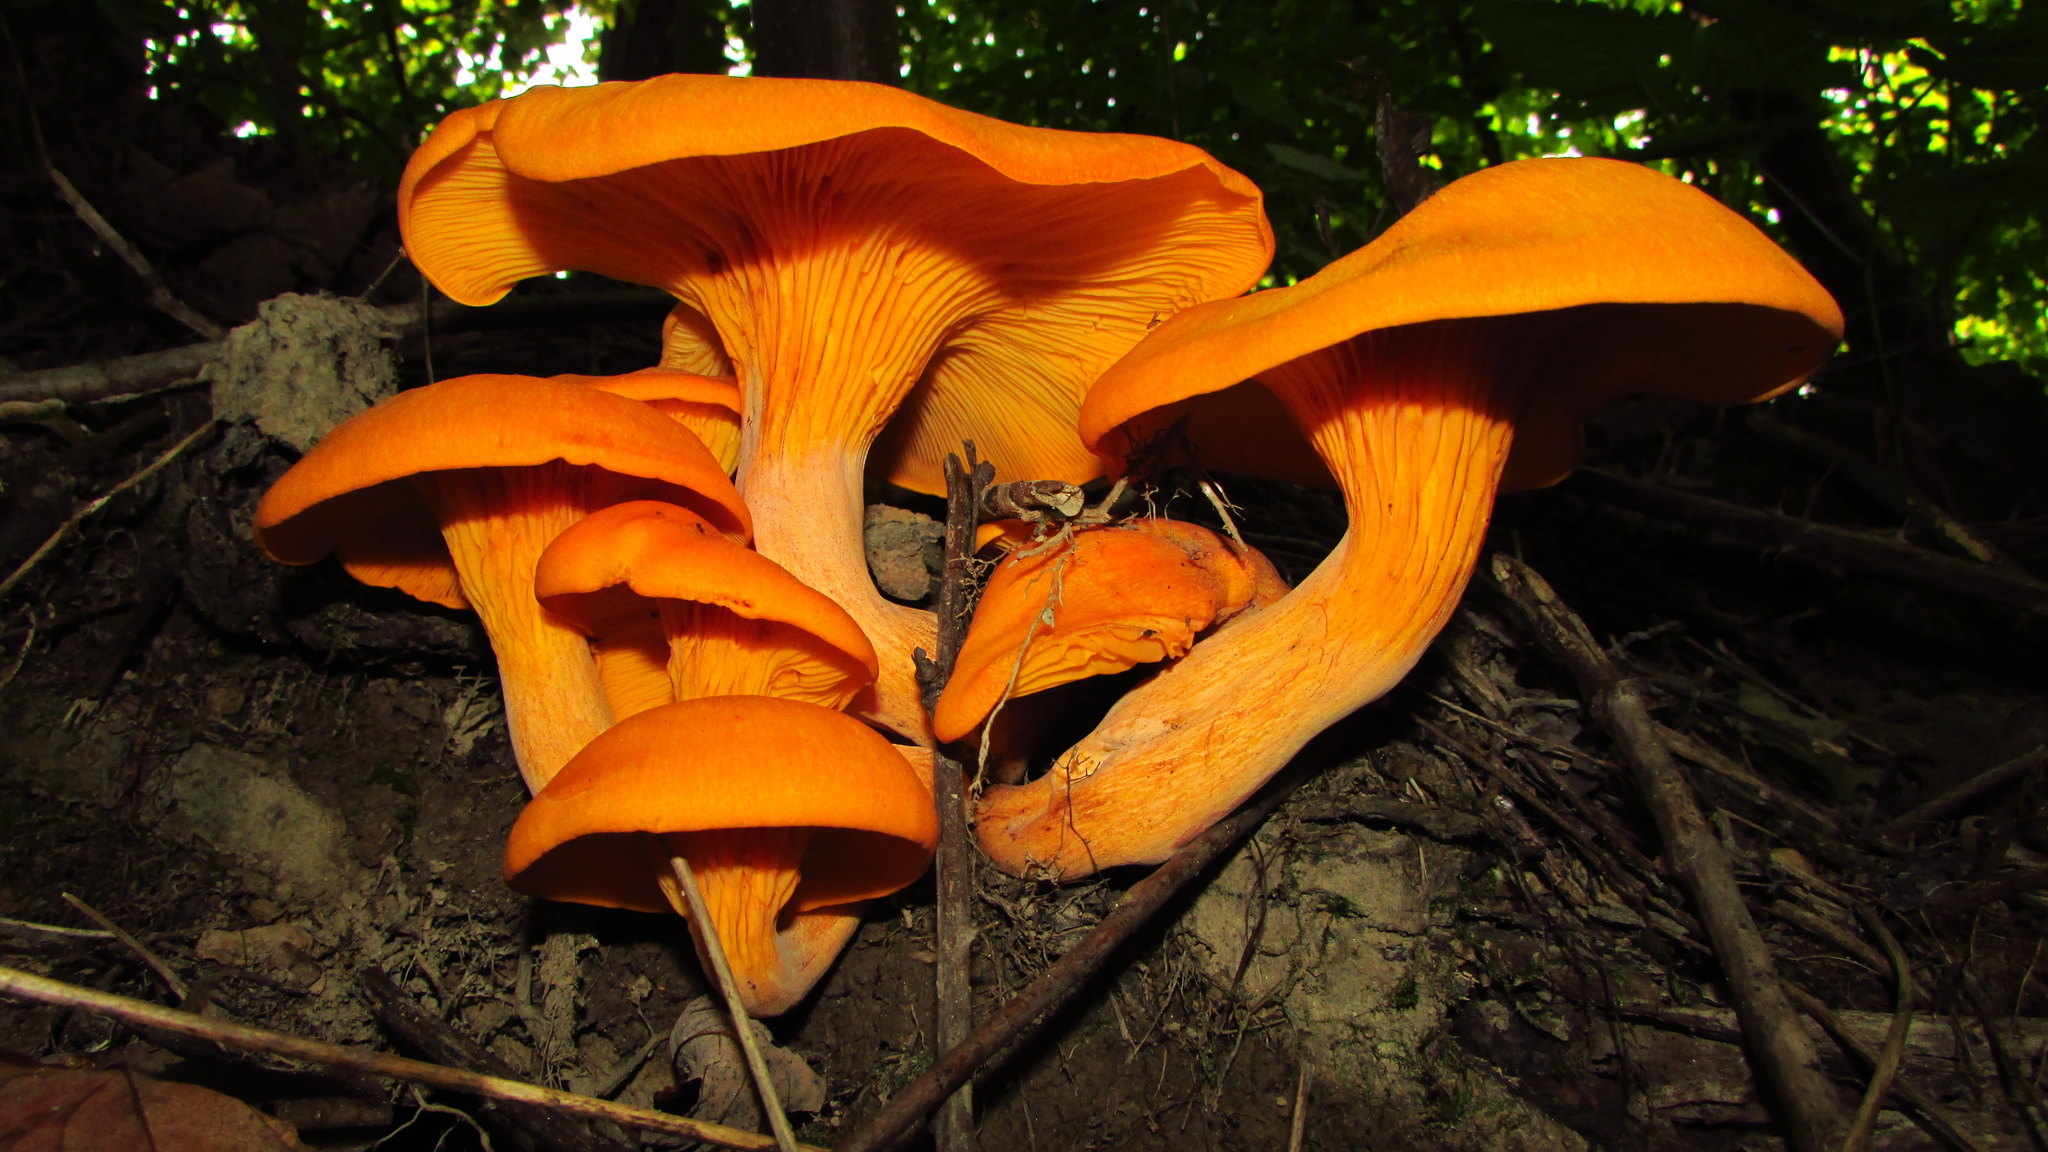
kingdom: Fungi
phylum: Basidiomycota
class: Agaricomycetes
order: Agaricales
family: Omphalotaceae
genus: Omphalotus
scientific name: Omphalotus illudens
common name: Jack o lantern
